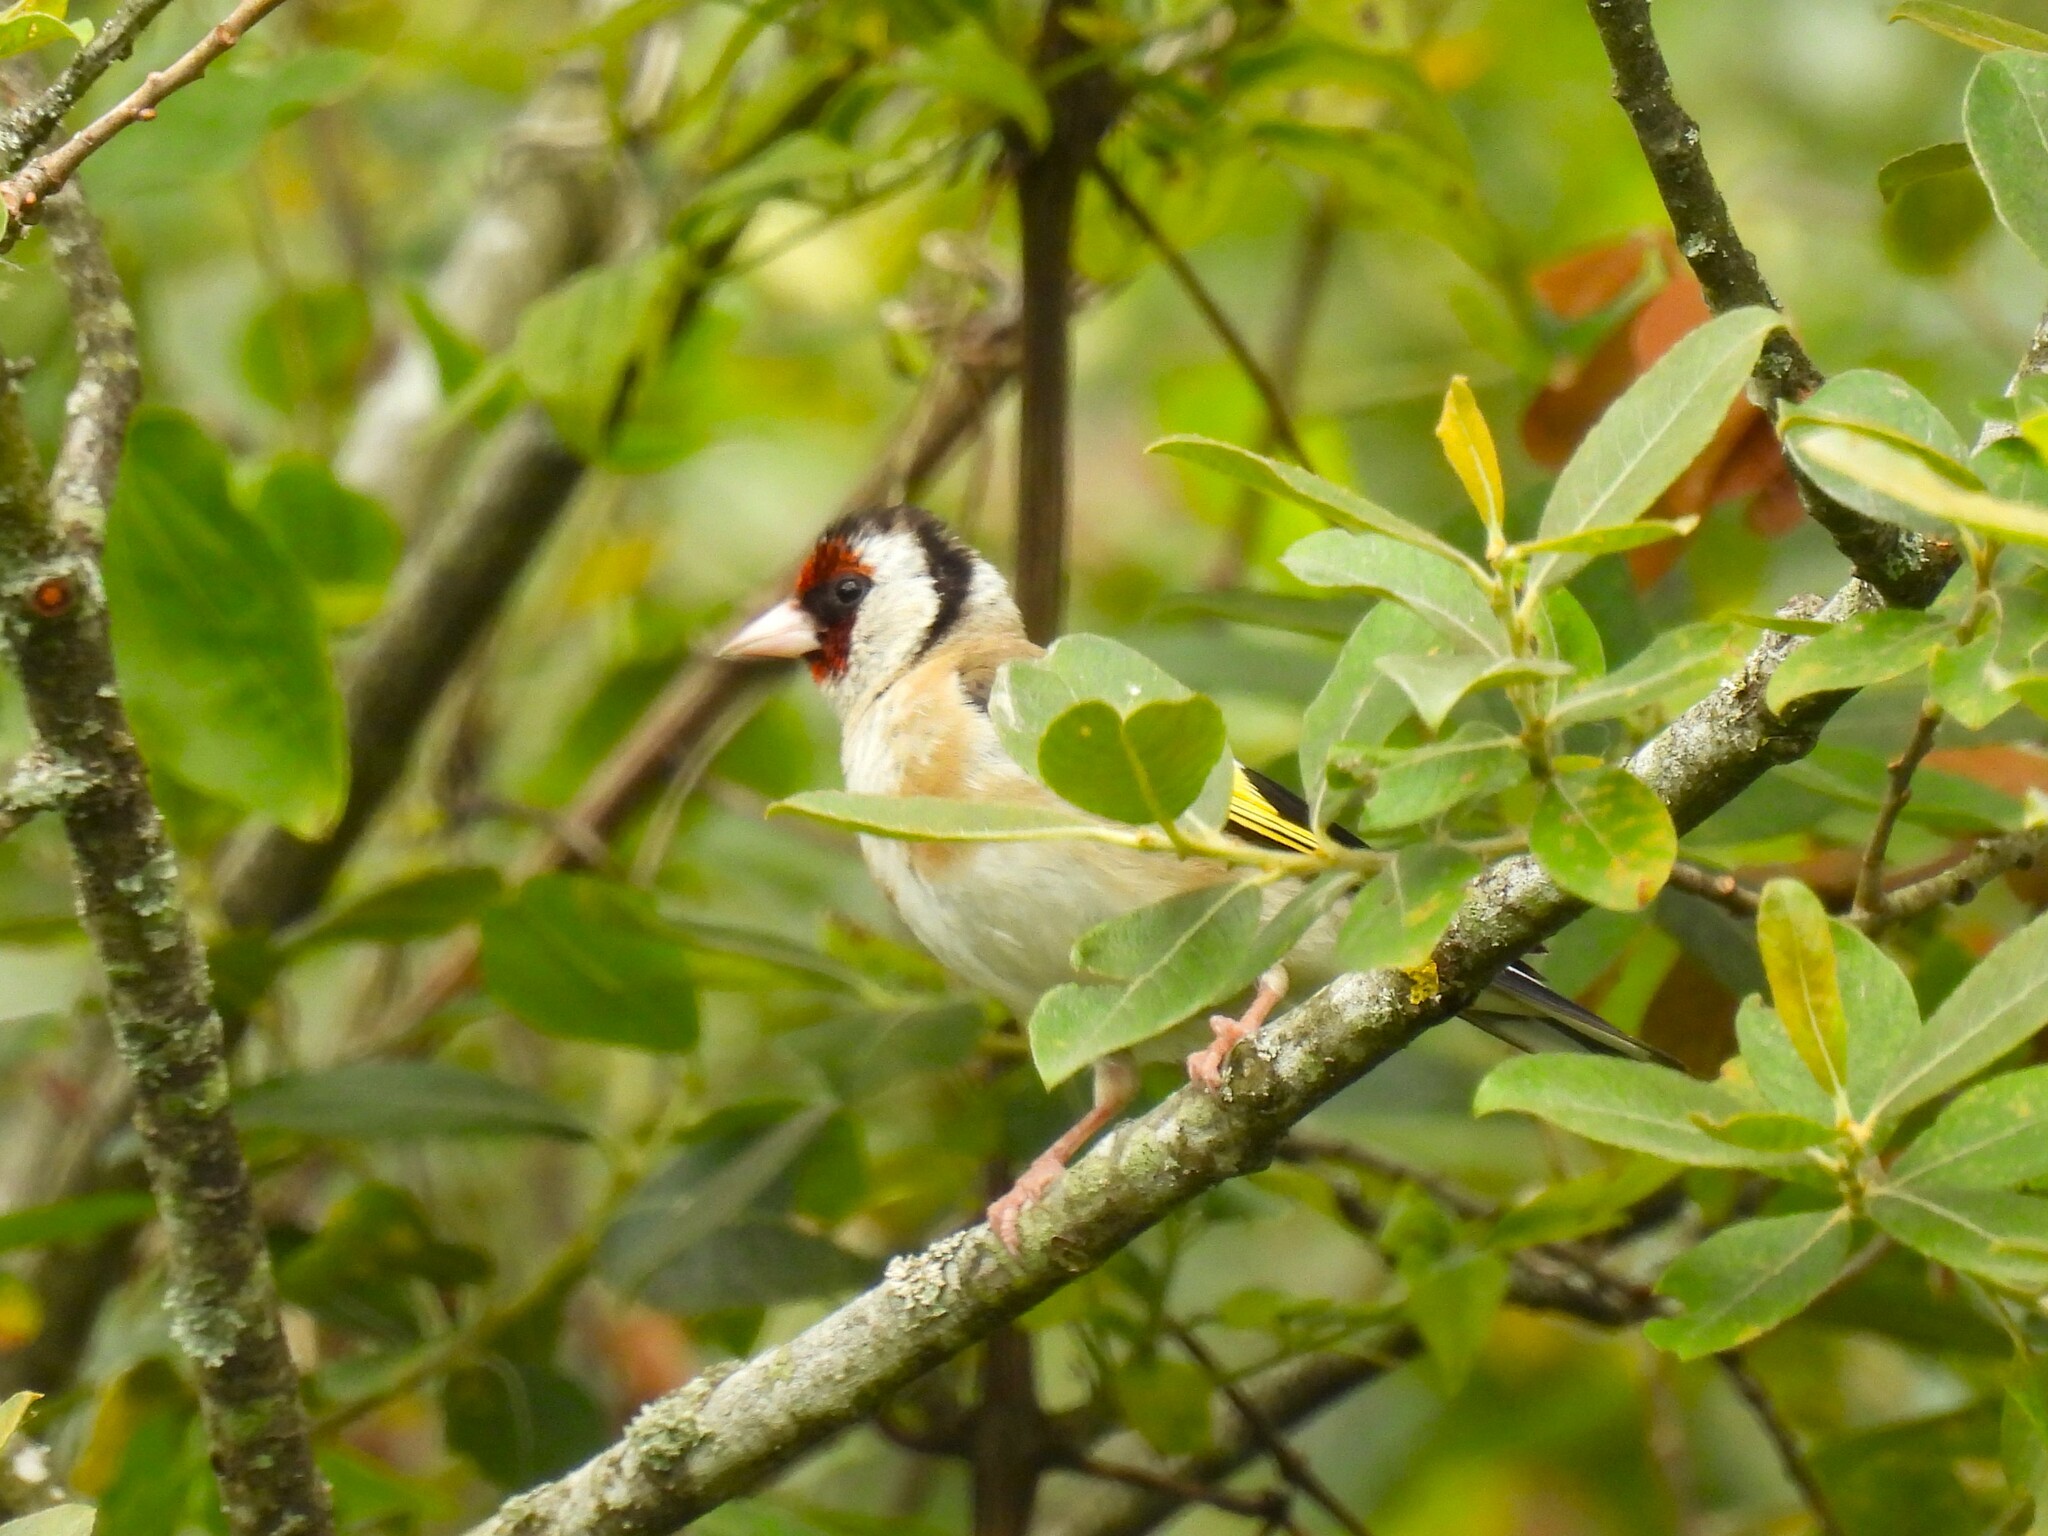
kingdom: Animalia
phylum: Chordata
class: Aves
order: Passeriformes
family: Fringillidae
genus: Carduelis
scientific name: Carduelis carduelis
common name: European goldfinch
